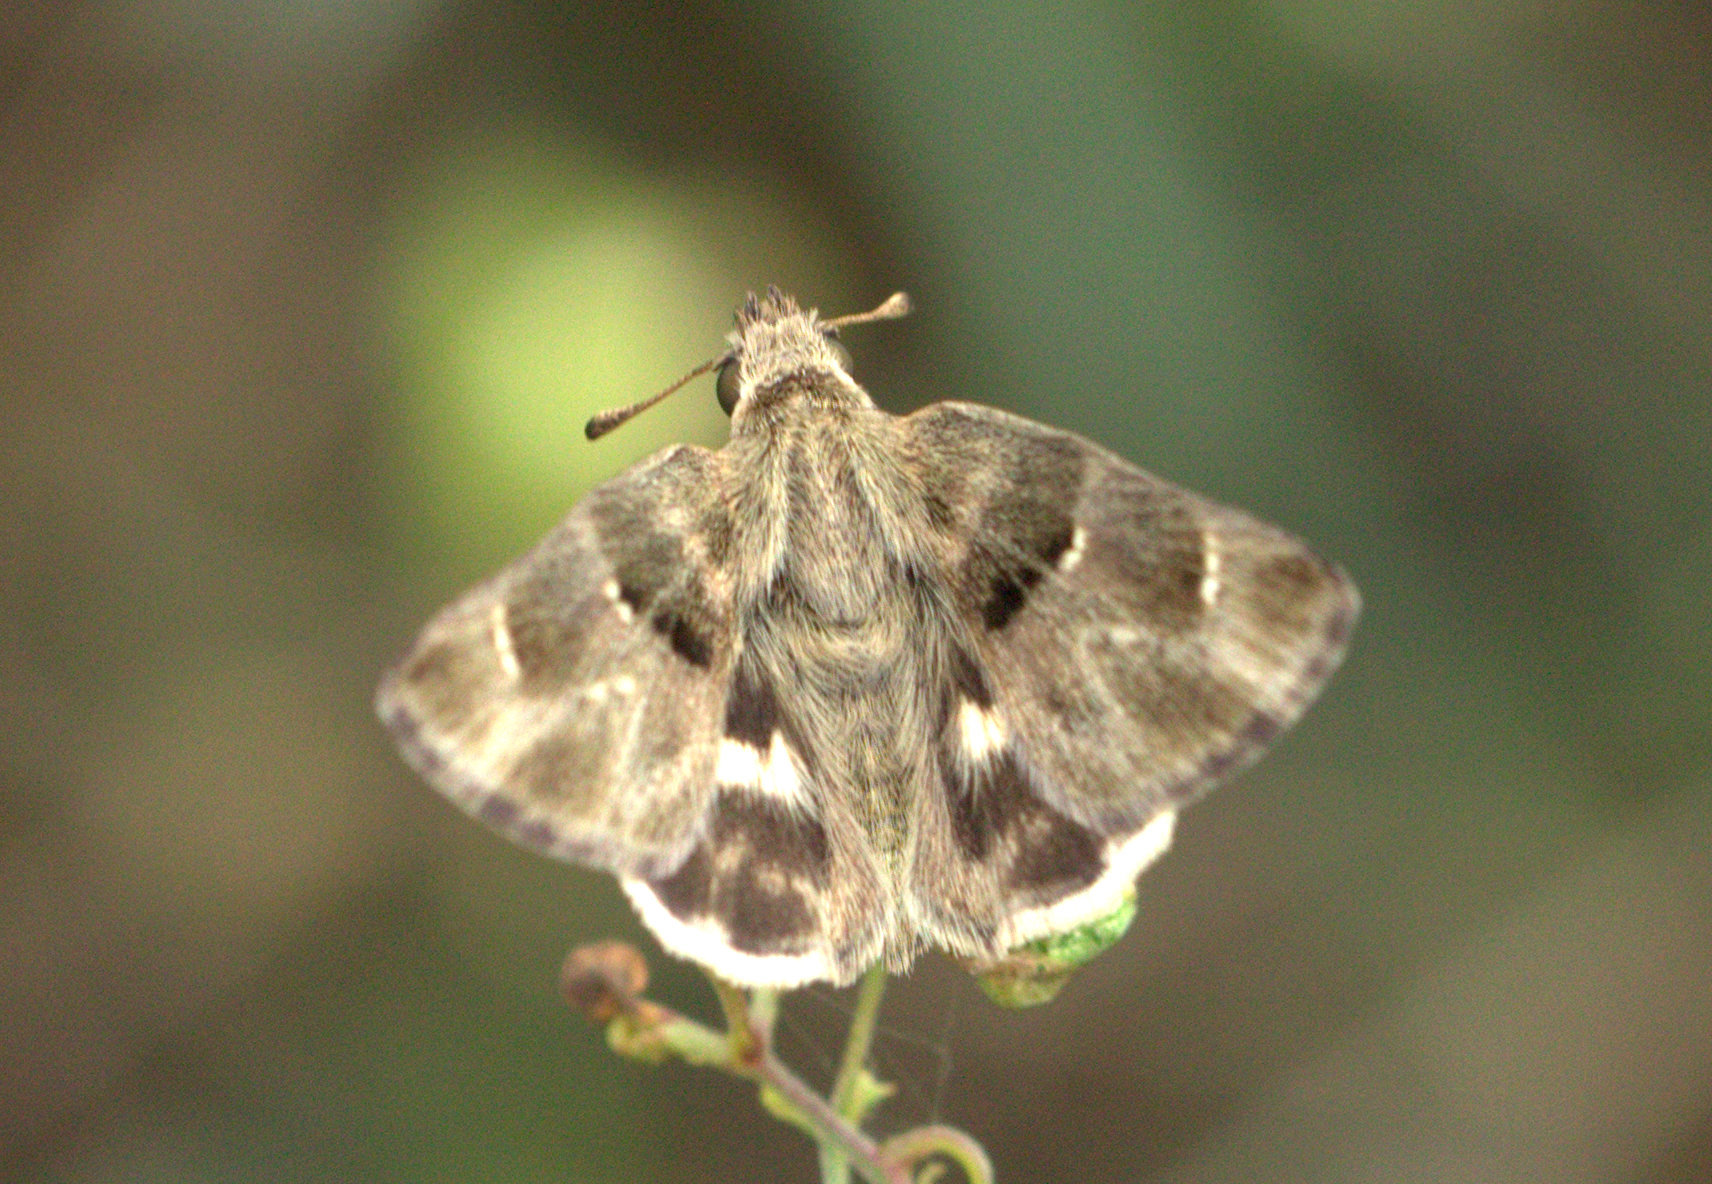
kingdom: Animalia
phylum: Arthropoda
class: Insecta
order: Lepidoptera
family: Hesperiidae
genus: Gomalia
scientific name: Gomalia elma
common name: Green-marbled skipper
